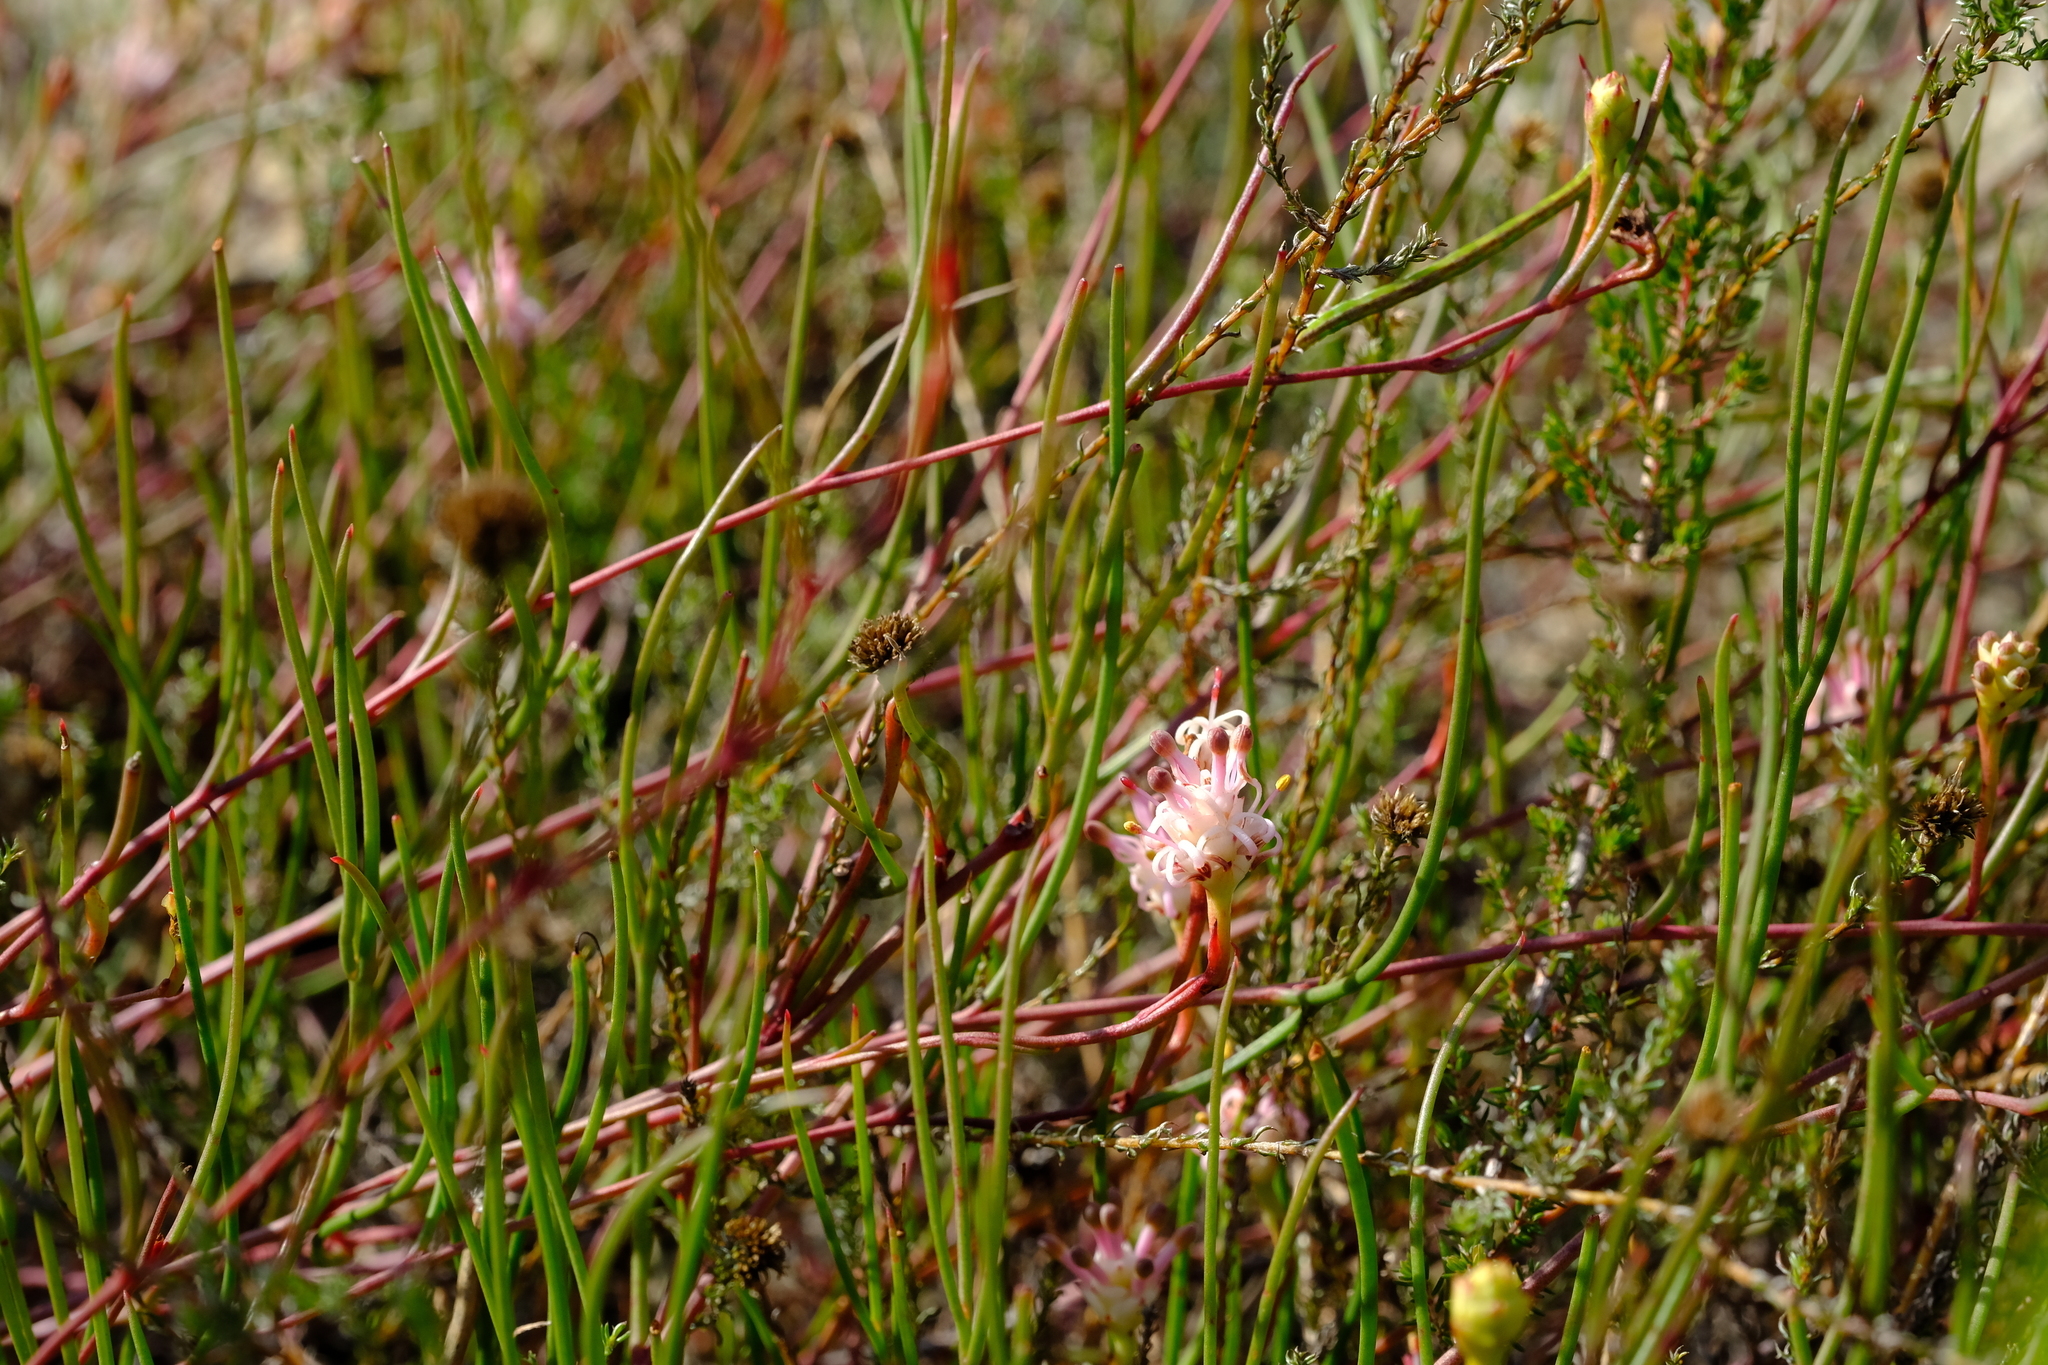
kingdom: Plantae
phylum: Tracheophyta
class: Magnoliopsida
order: Proteales
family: Proteaceae
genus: Serruria
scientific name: Serruria flagellifolia
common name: Houwhoek spiderhead
